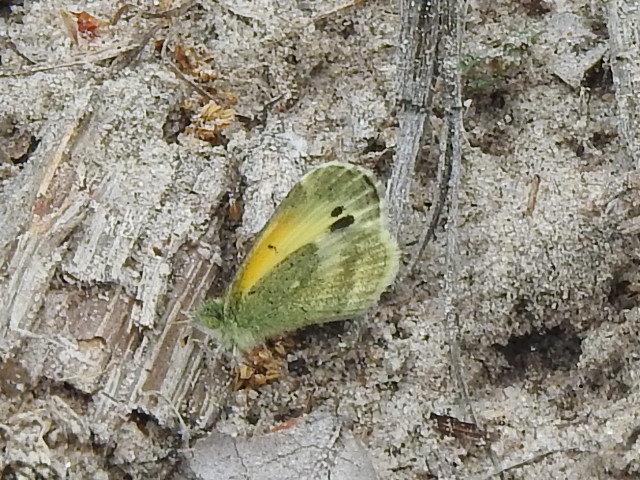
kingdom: Animalia
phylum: Arthropoda
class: Insecta
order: Lepidoptera
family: Pieridae
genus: Nathalis
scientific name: Nathalis iole
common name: Dainty sulphur
